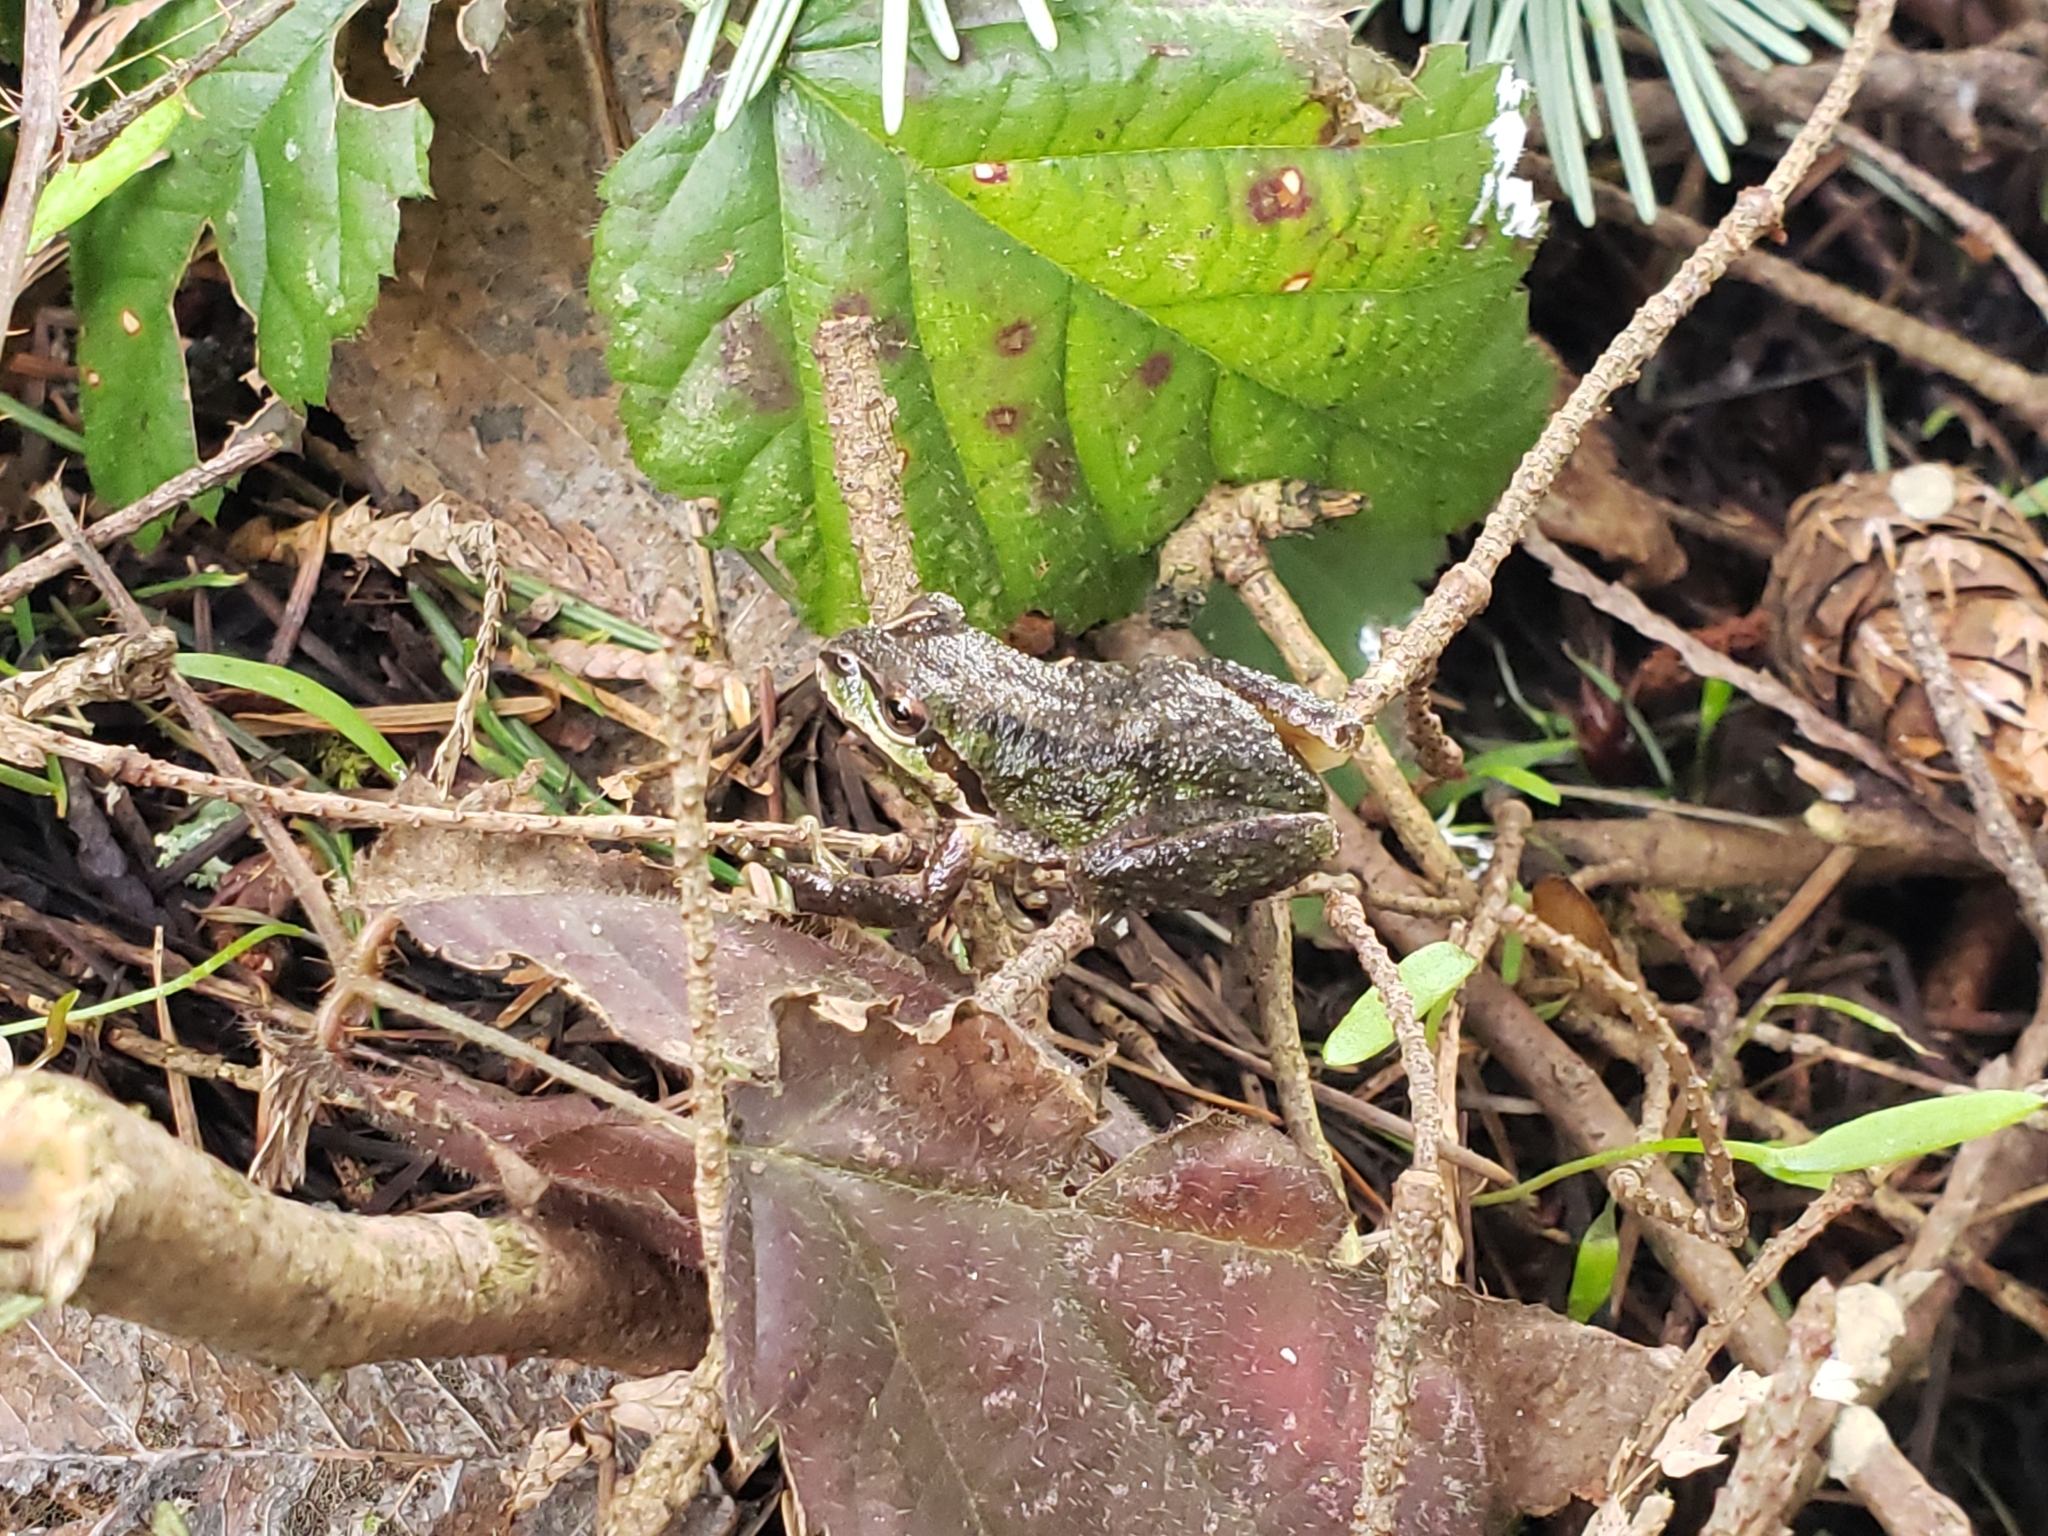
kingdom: Animalia
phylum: Chordata
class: Amphibia
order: Anura
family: Hylidae
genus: Pseudacris
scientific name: Pseudacris regilla
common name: Pacific chorus frog
